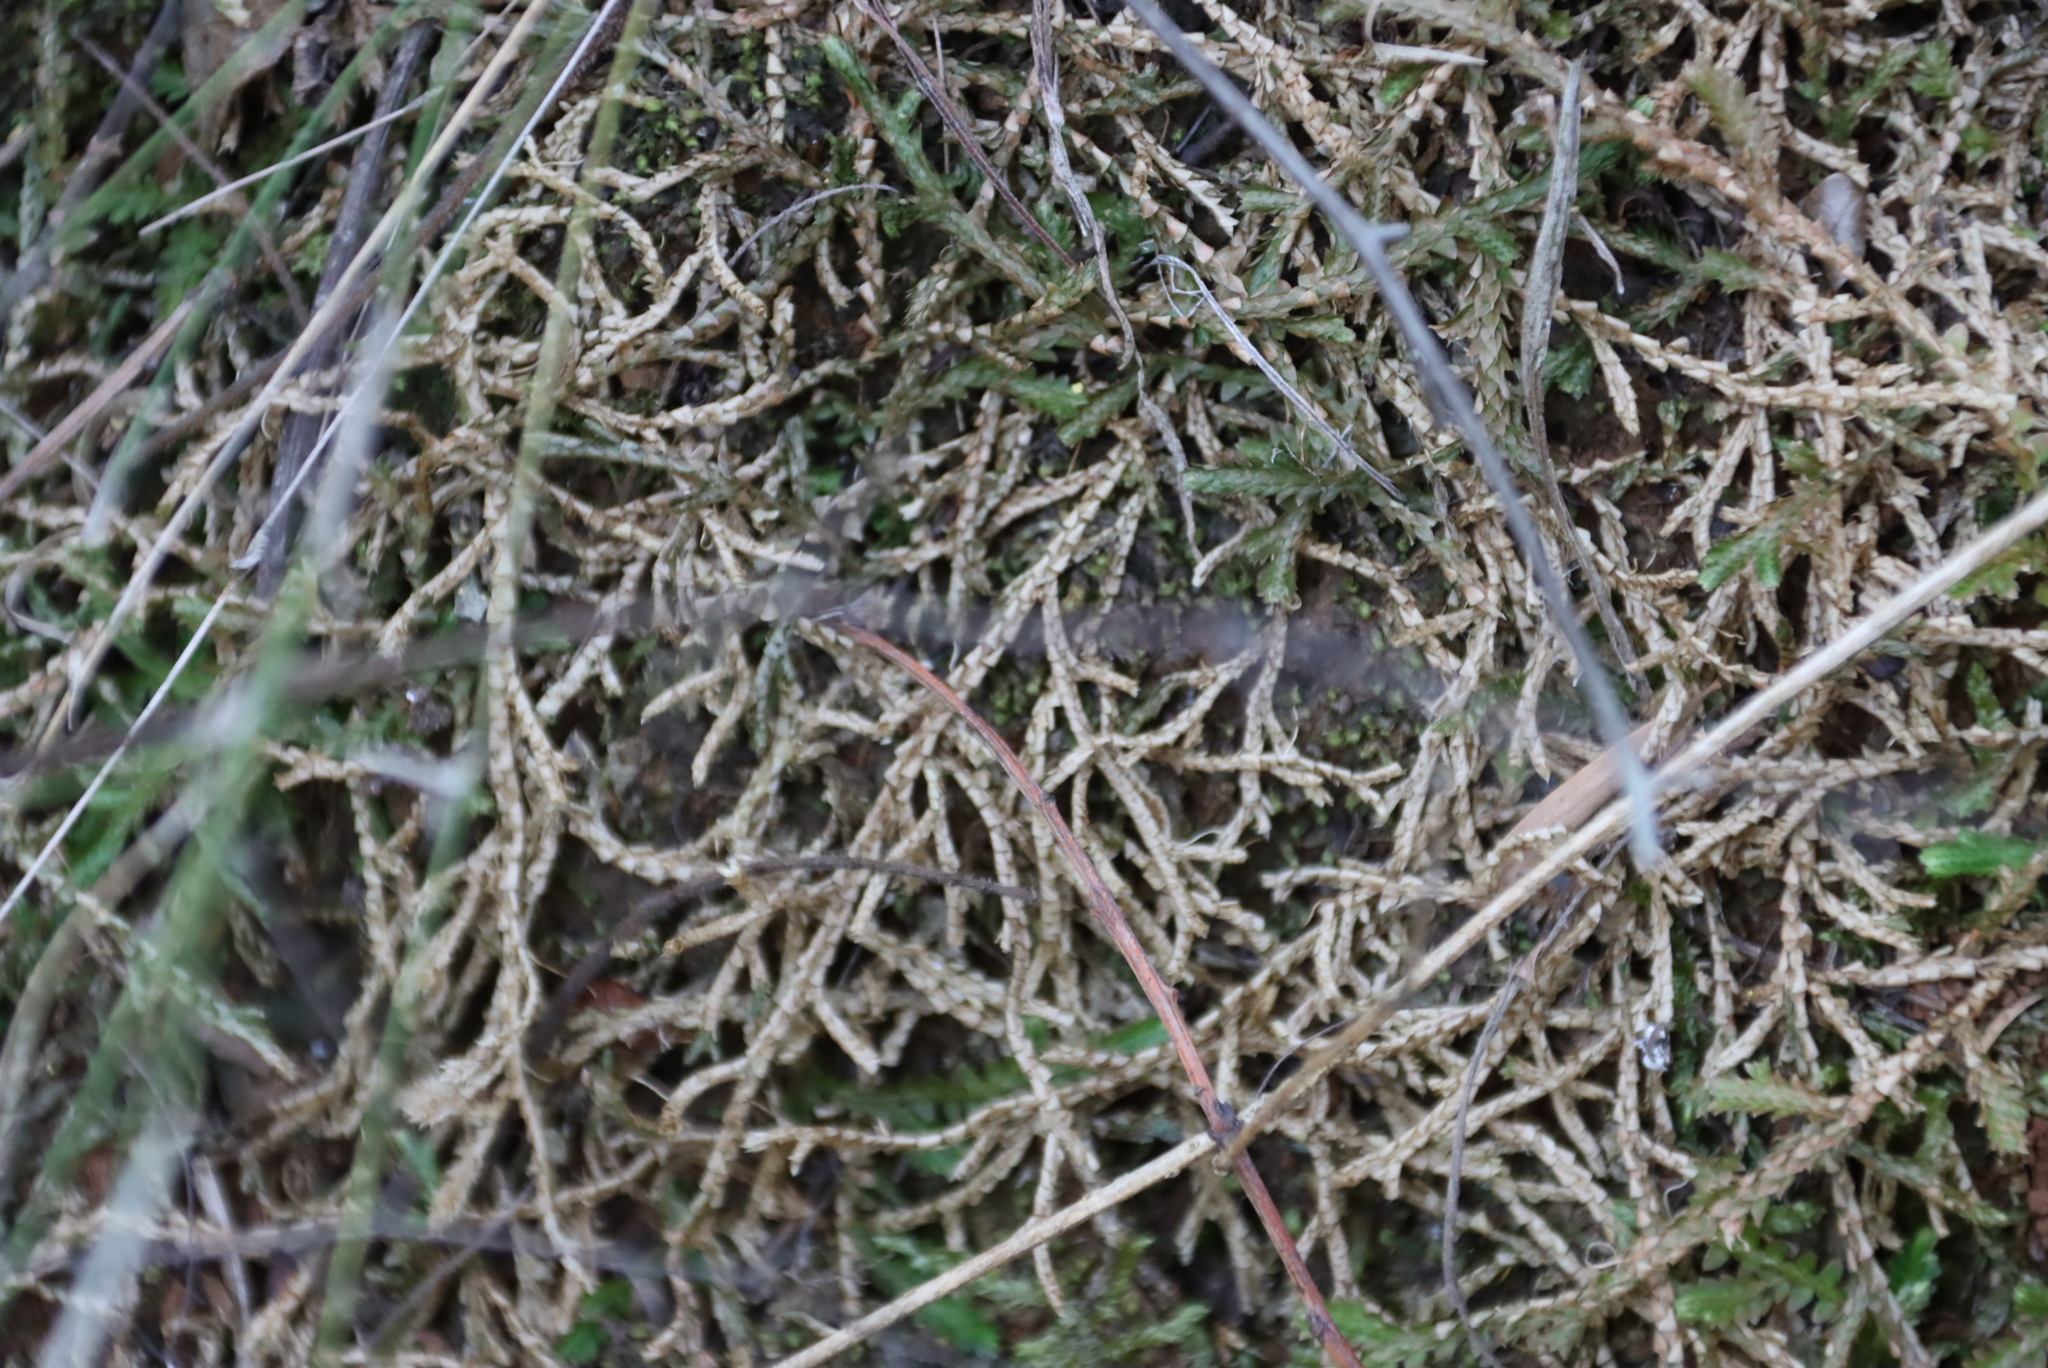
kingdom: Plantae
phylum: Tracheophyta
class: Lycopodiopsida
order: Selaginellales
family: Selaginellaceae
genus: Selaginella
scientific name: Selaginella mittenii
